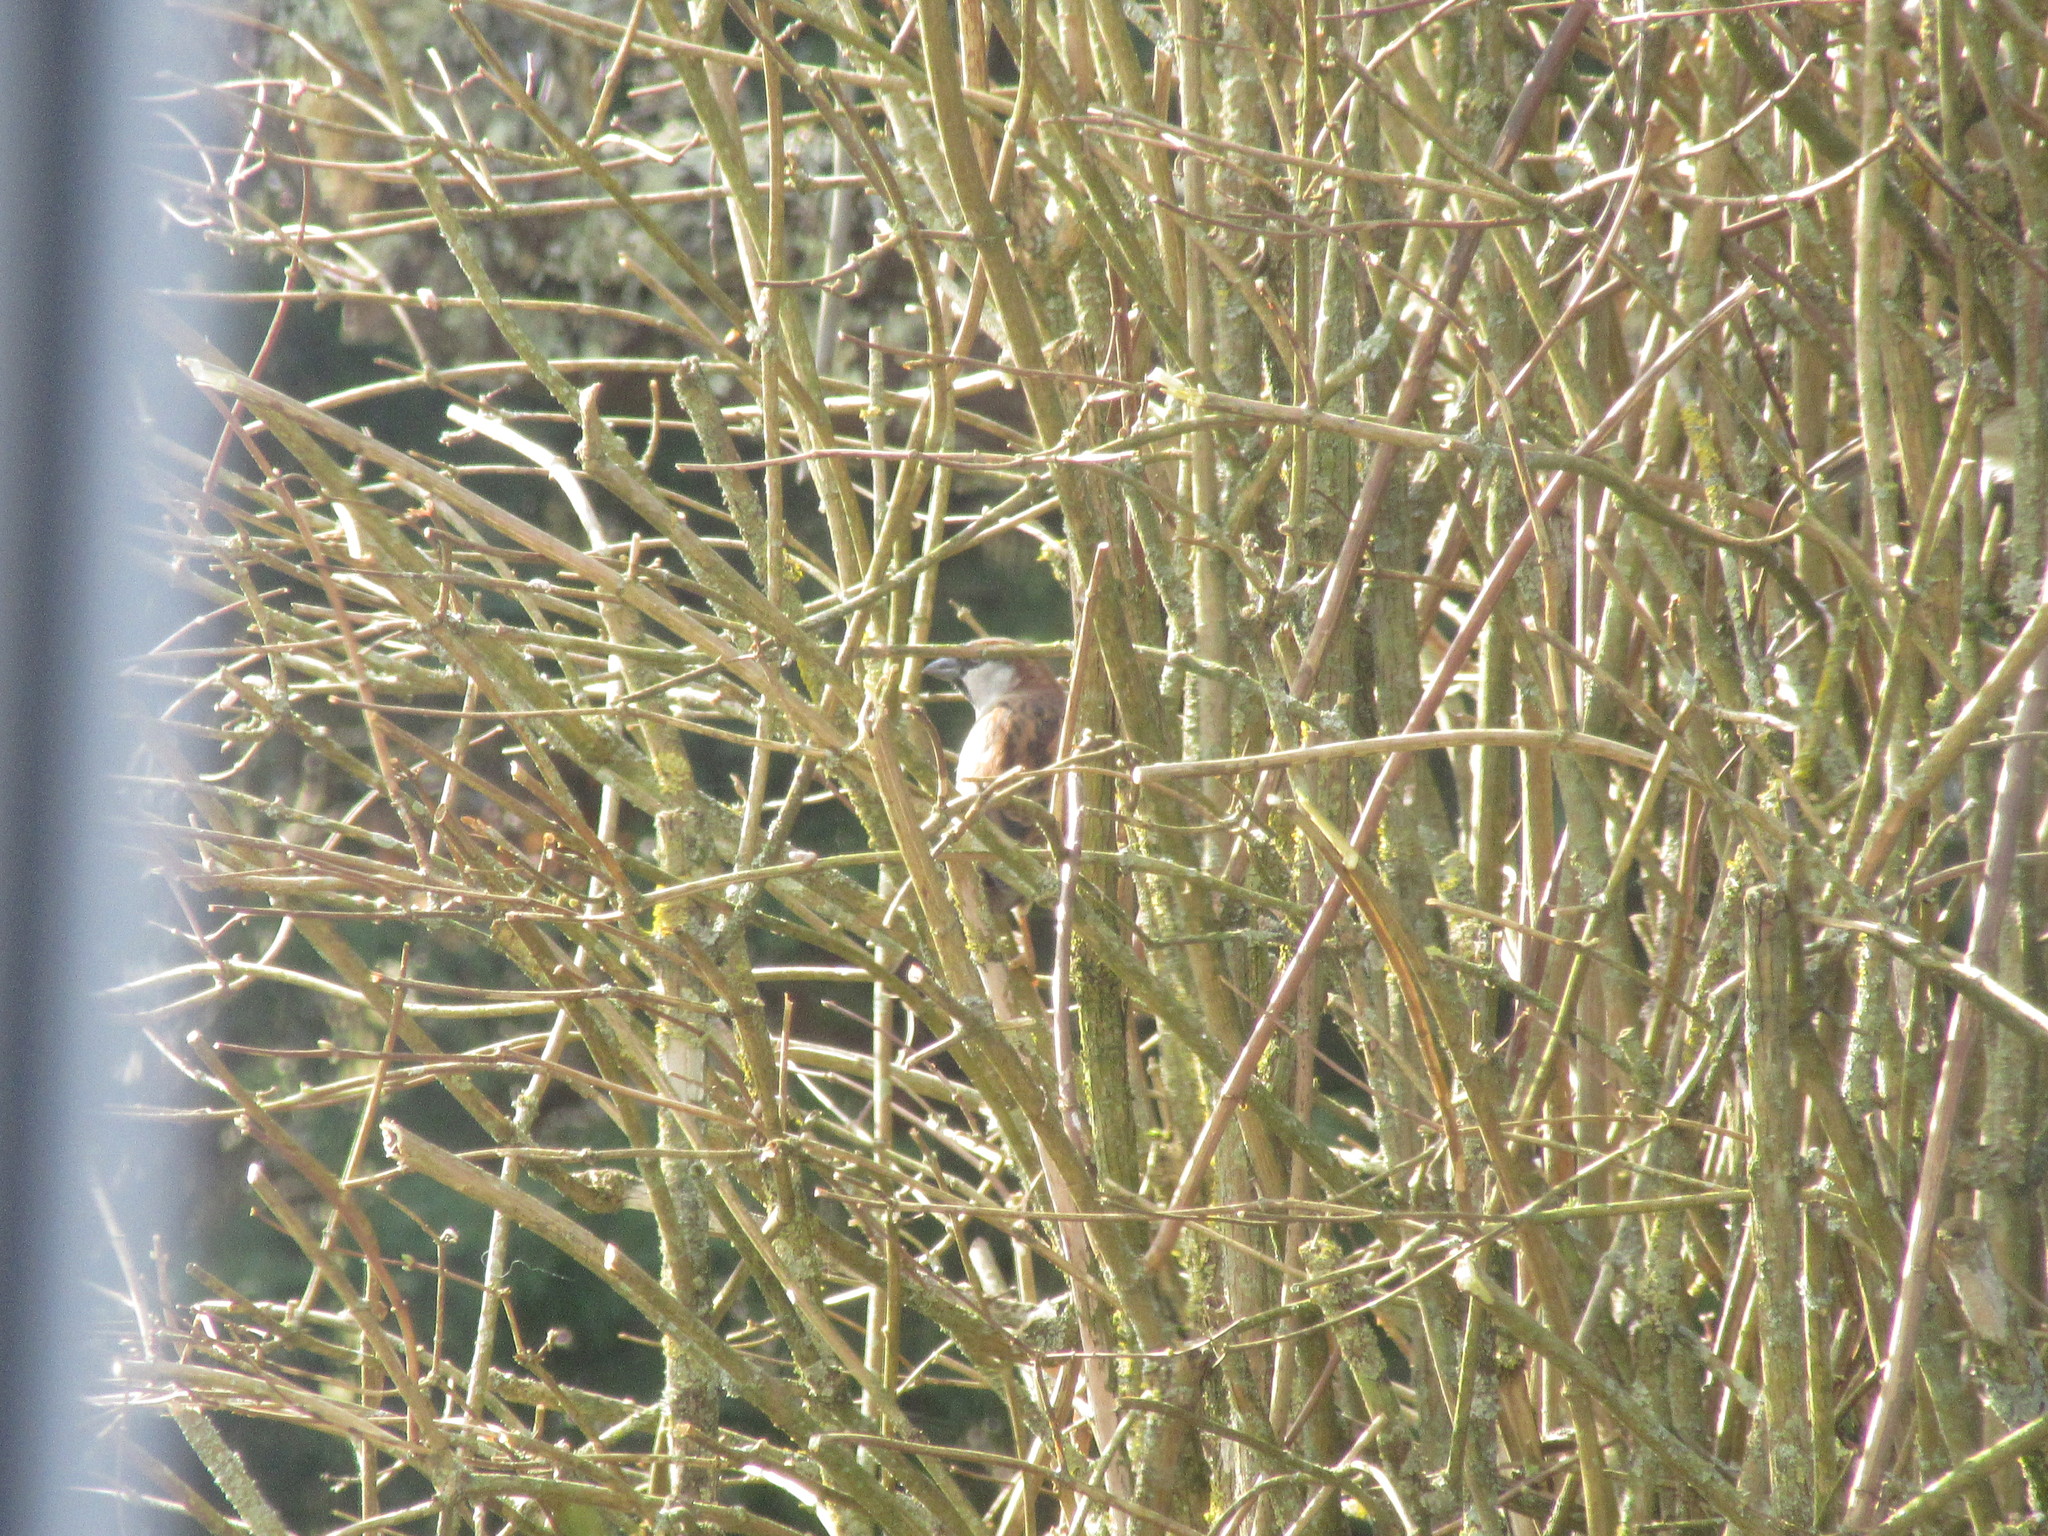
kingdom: Animalia
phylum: Chordata
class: Aves
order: Passeriformes
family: Passeridae
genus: Passer
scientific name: Passer domesticus
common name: House sparrow
